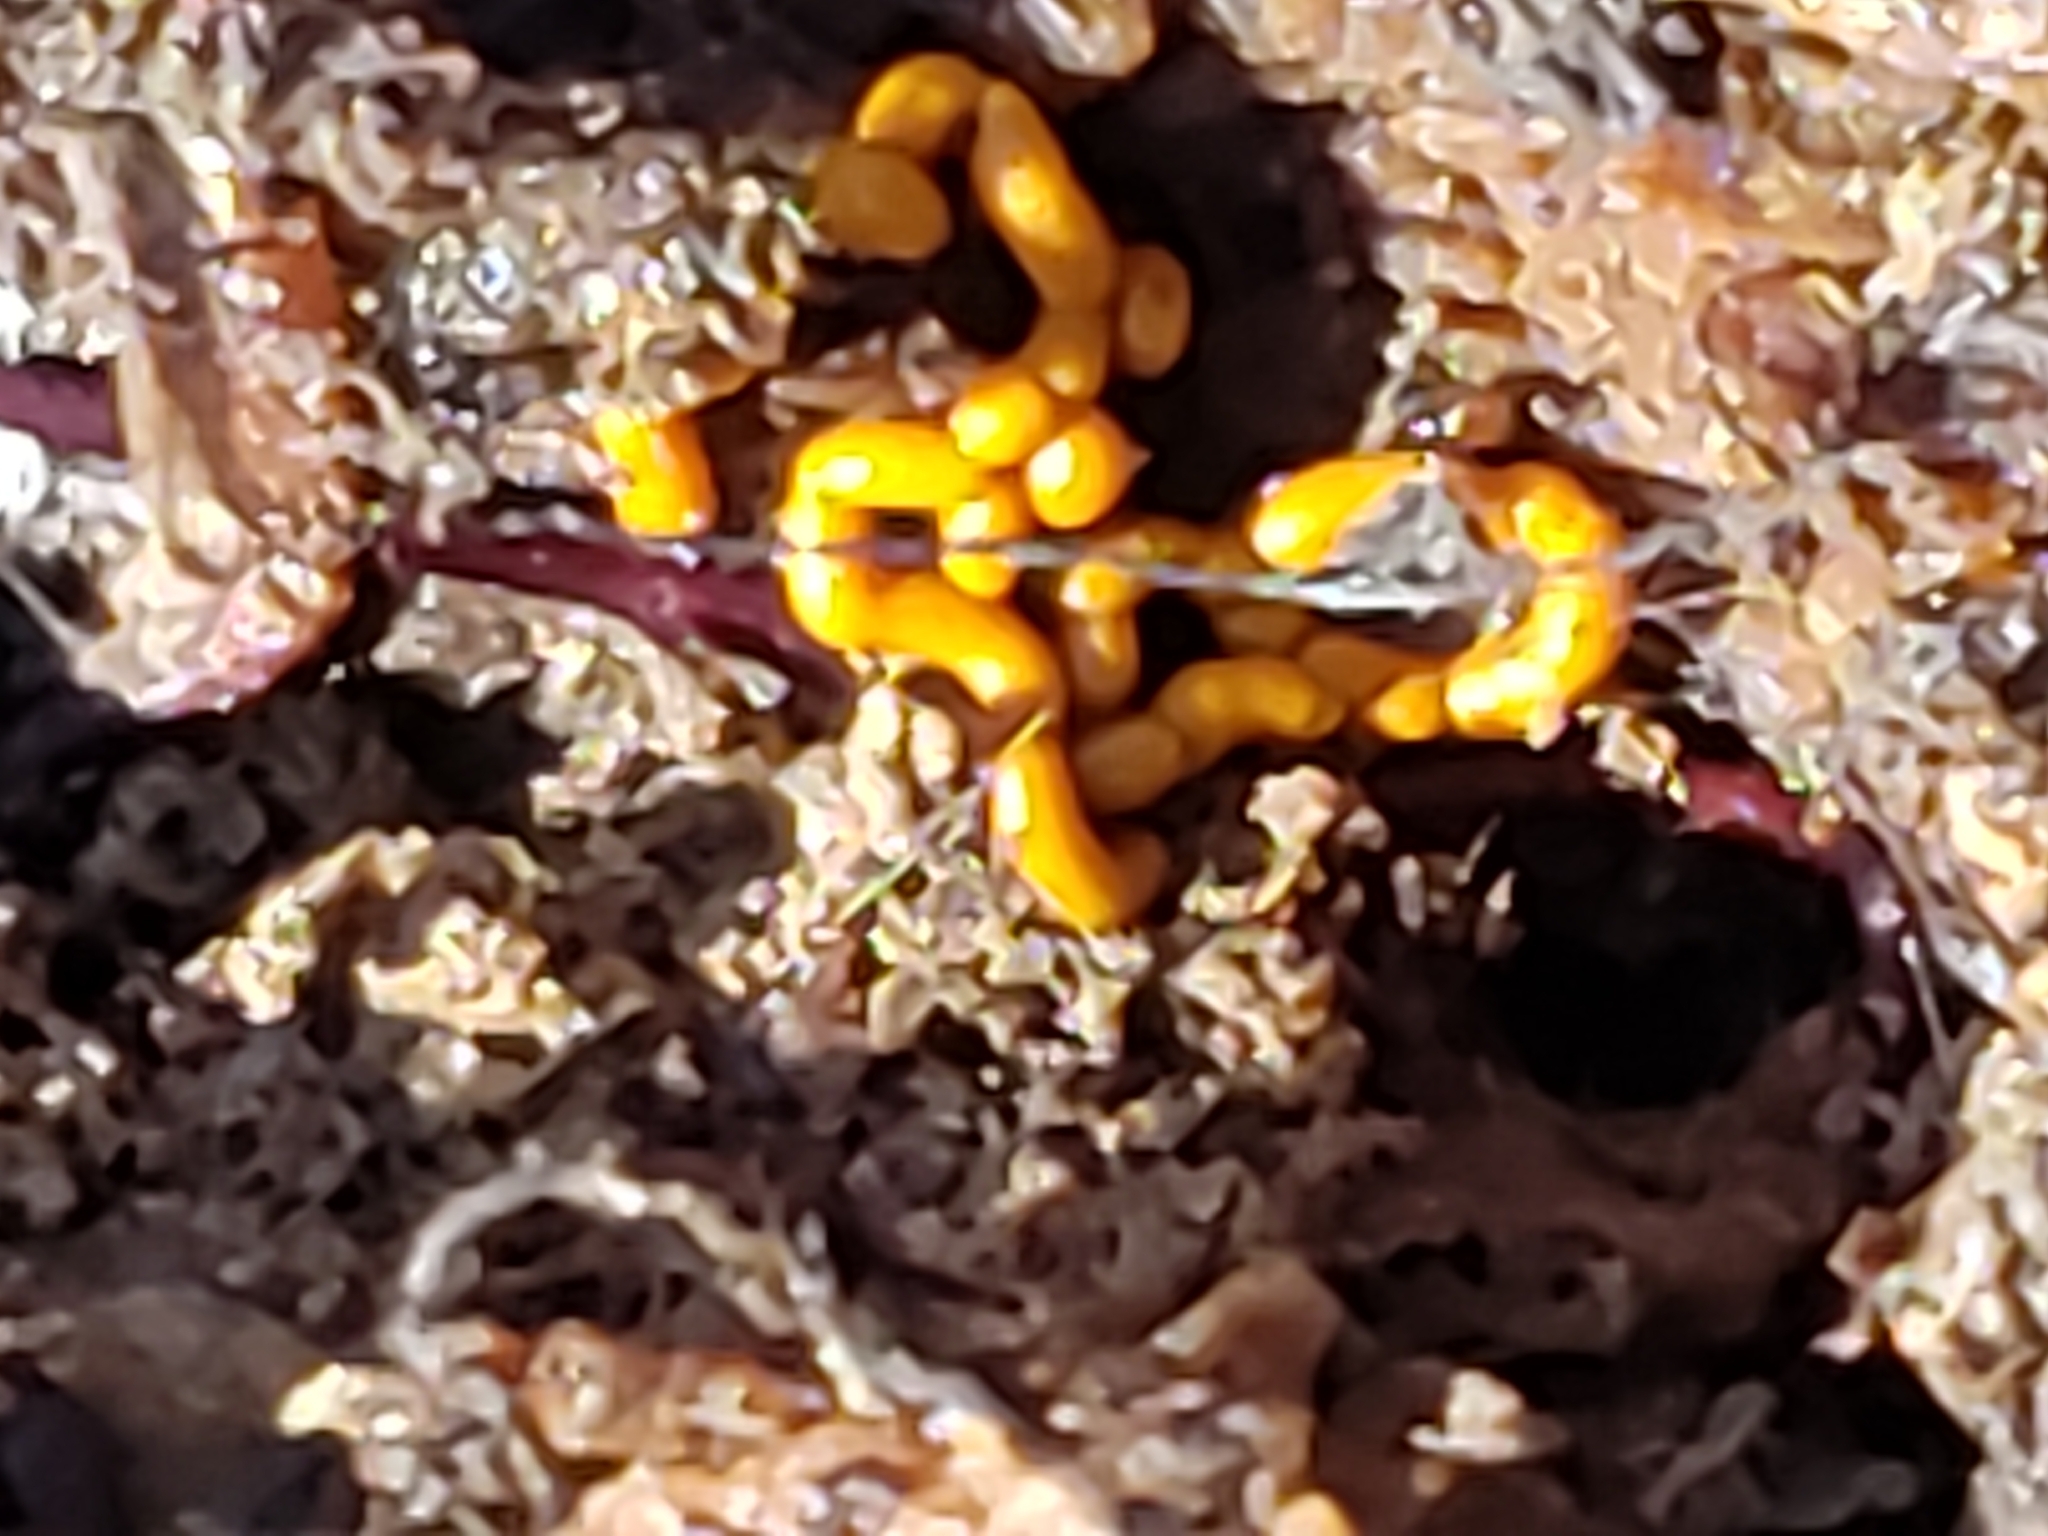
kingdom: Protozoa
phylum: Mycetozoa
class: Myxomycetes
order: Trichiales
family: Arcyriaceae
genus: Hemitrichia
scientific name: Hemitrichia serpula
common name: Pretzel slime mold
